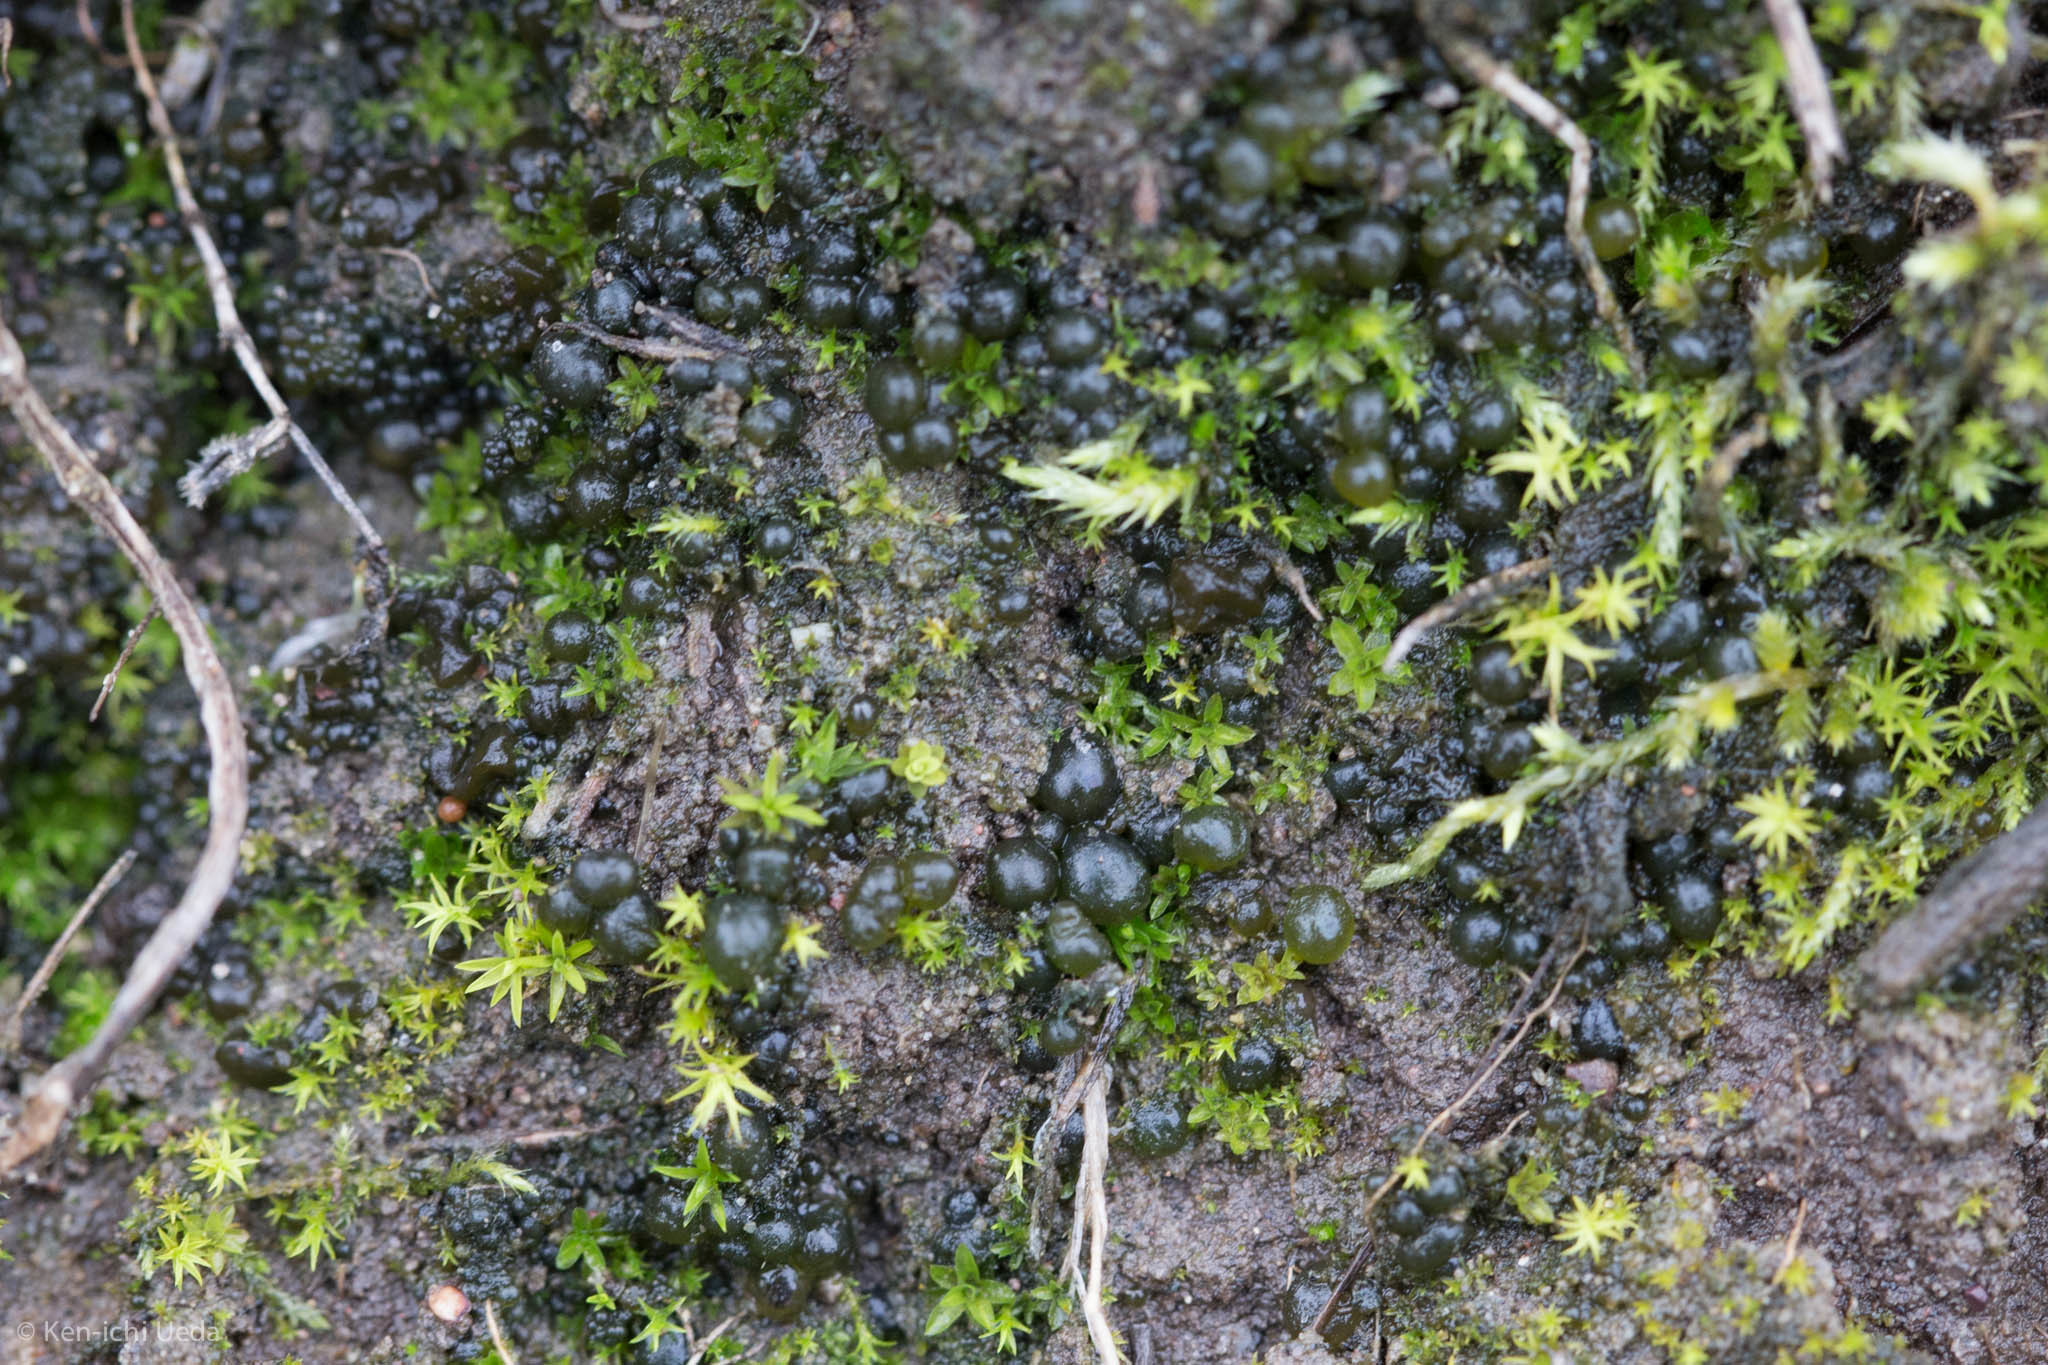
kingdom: Bacteria
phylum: Cyanobacteria
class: Cyanobacteriia
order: Cyanobacteriales
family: Nostocaceae
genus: Nostoc
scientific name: Nostoc
